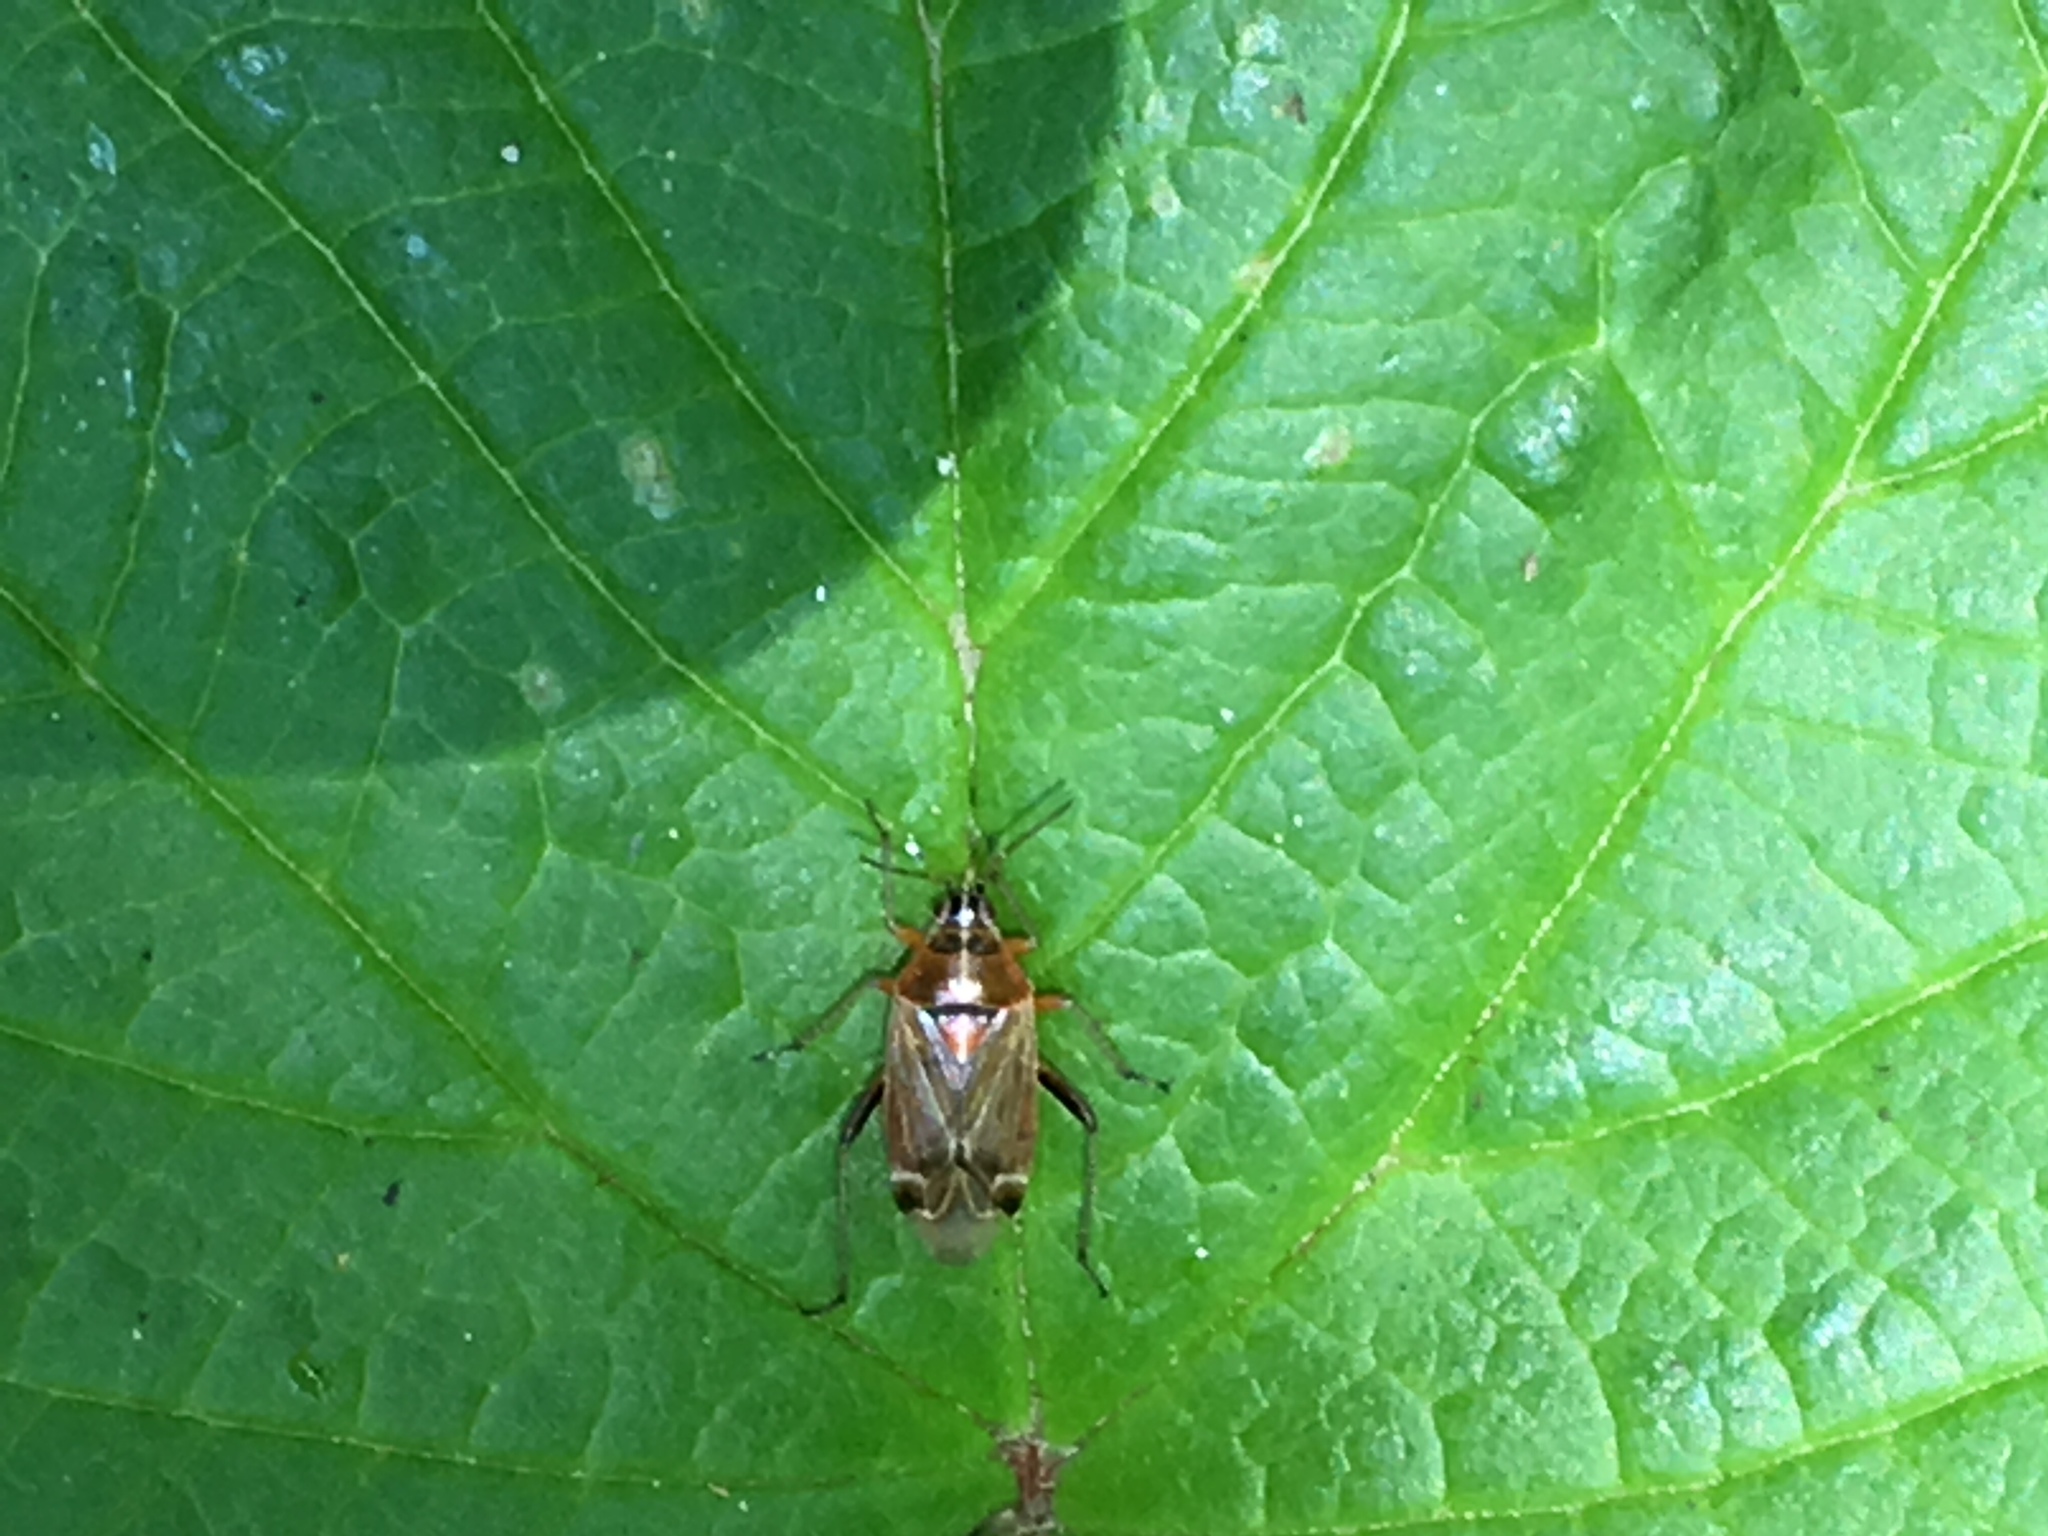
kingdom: Animalia
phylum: Arthropoda
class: Insecta
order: Hemiptera
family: Miridae
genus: Harpocera
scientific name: Harpocera thoracica
